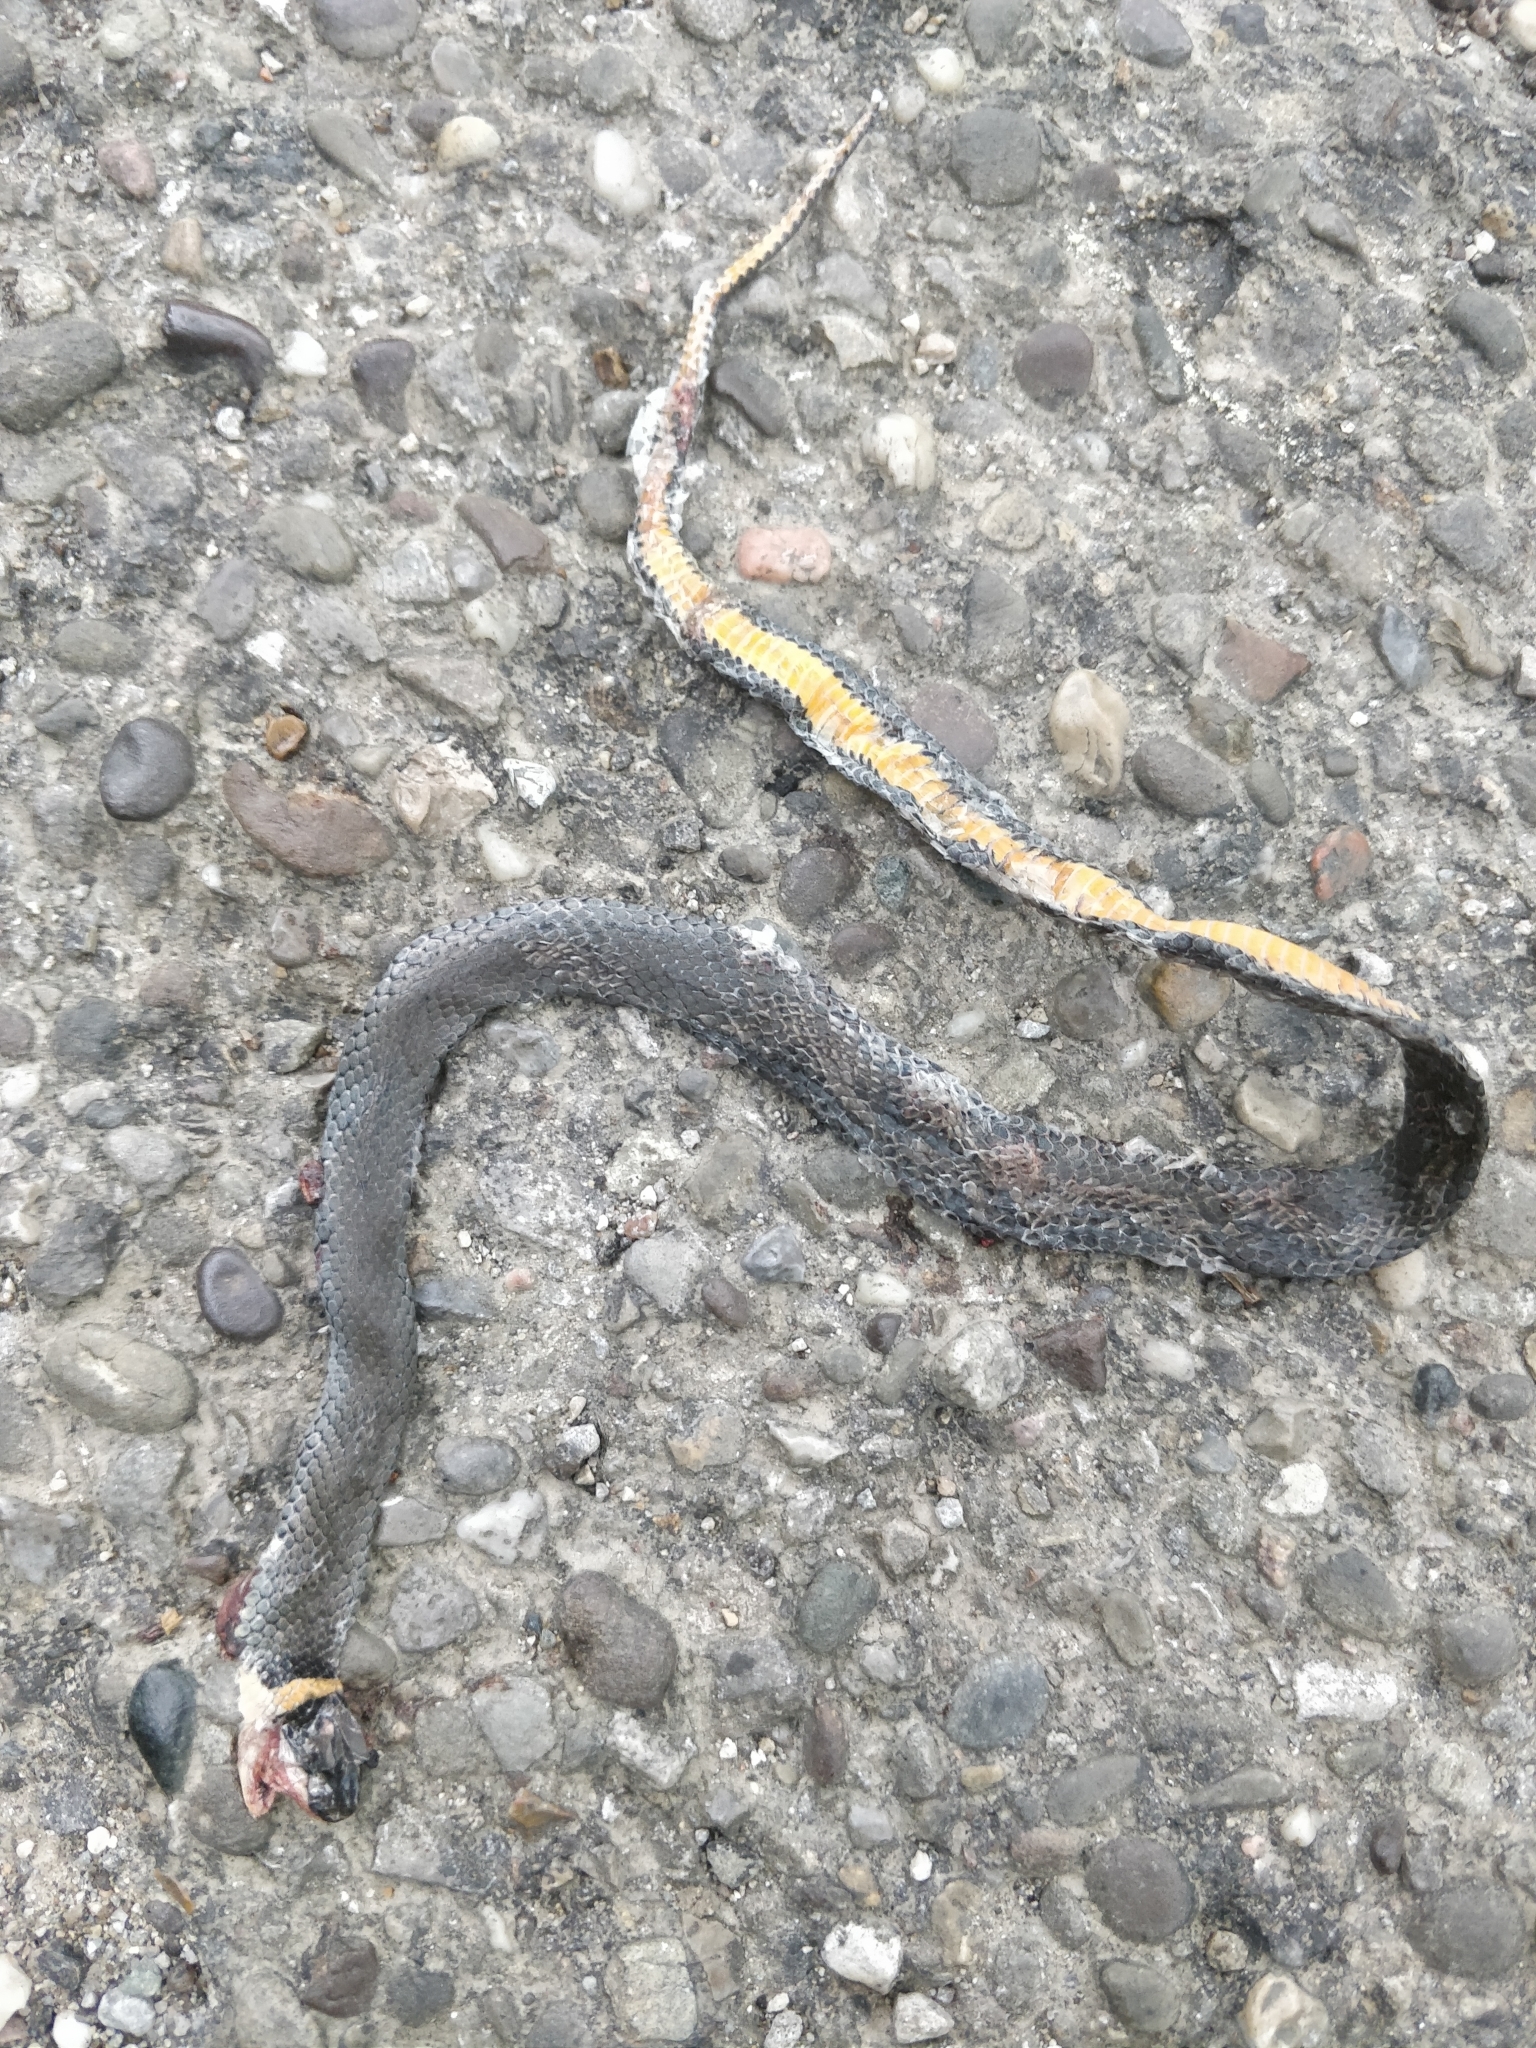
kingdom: Animalia
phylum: Chordata
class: Squamata
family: Colubridae
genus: Diadophis
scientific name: Diadophis punctatus
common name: Ringneck snake
